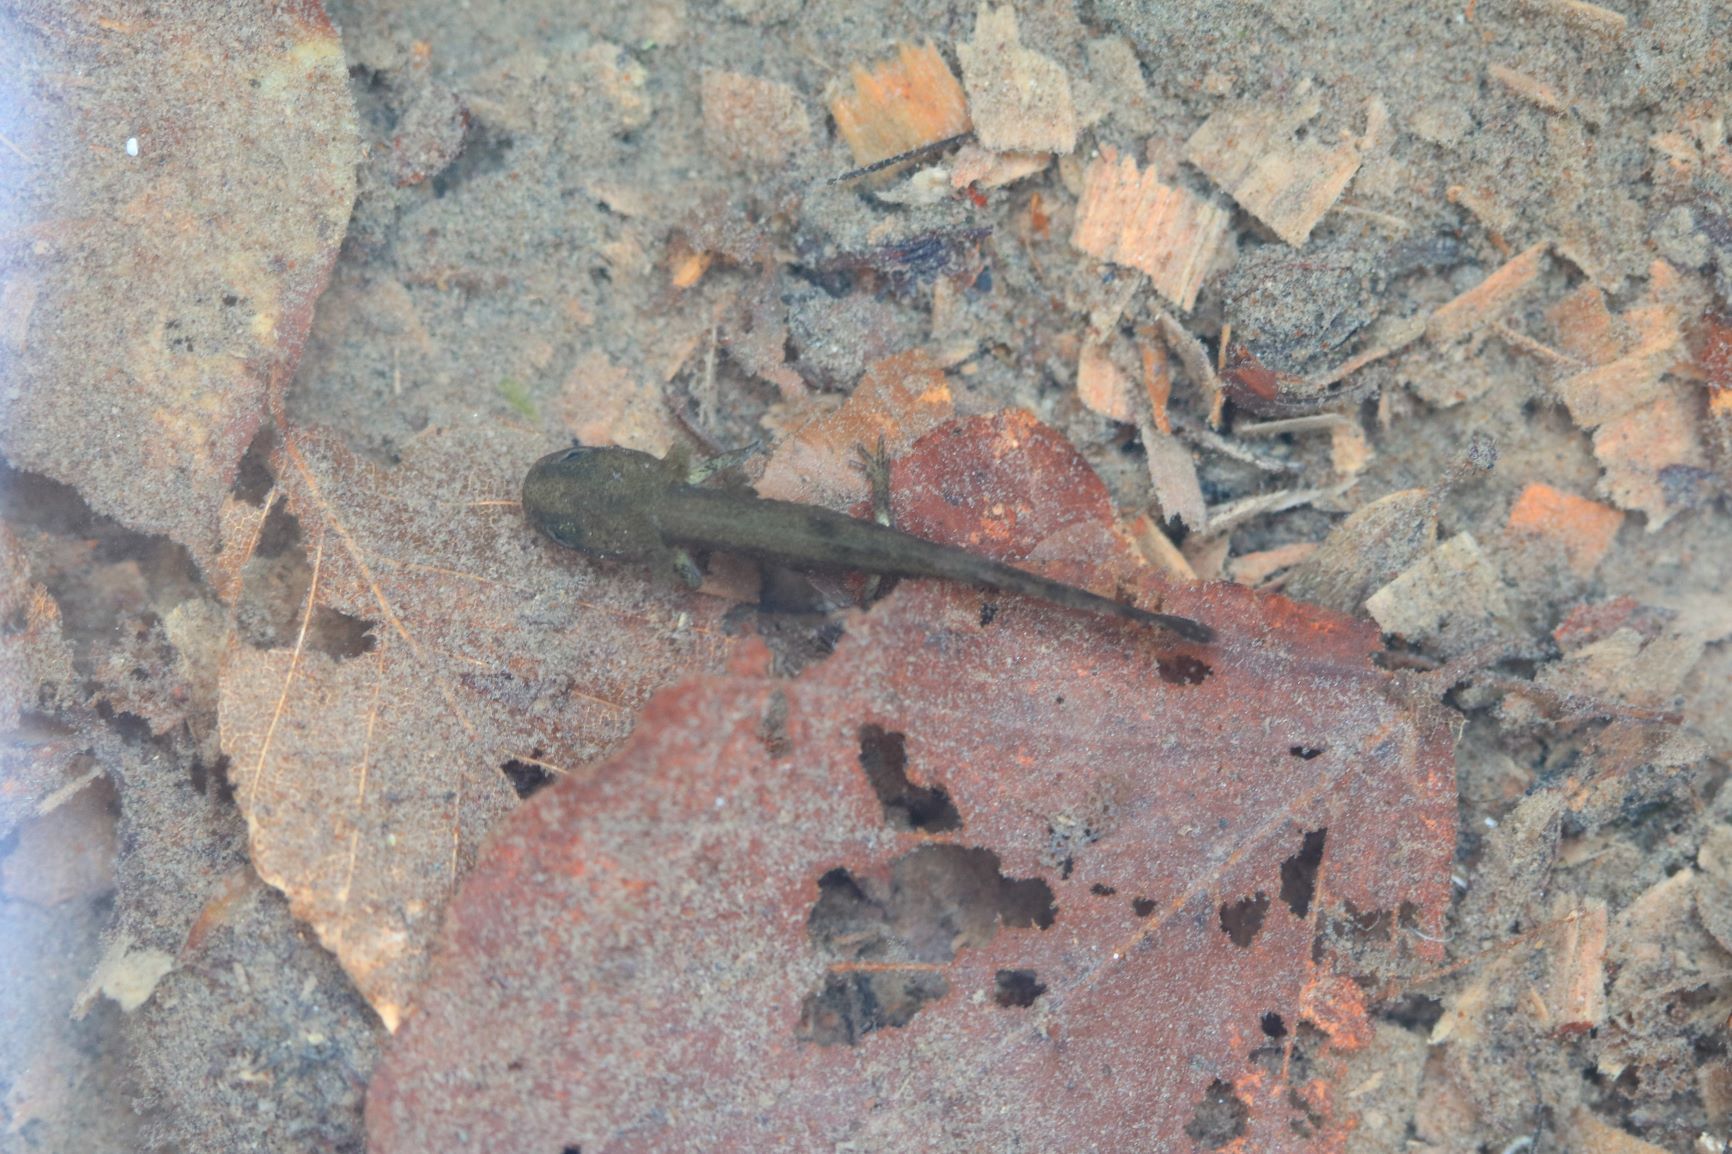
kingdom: Animalia
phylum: Chordata
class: Amphibia
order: Caudata
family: Salamandridae
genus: Salamandra
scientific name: Salamandra salamandra
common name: Fire salamander
